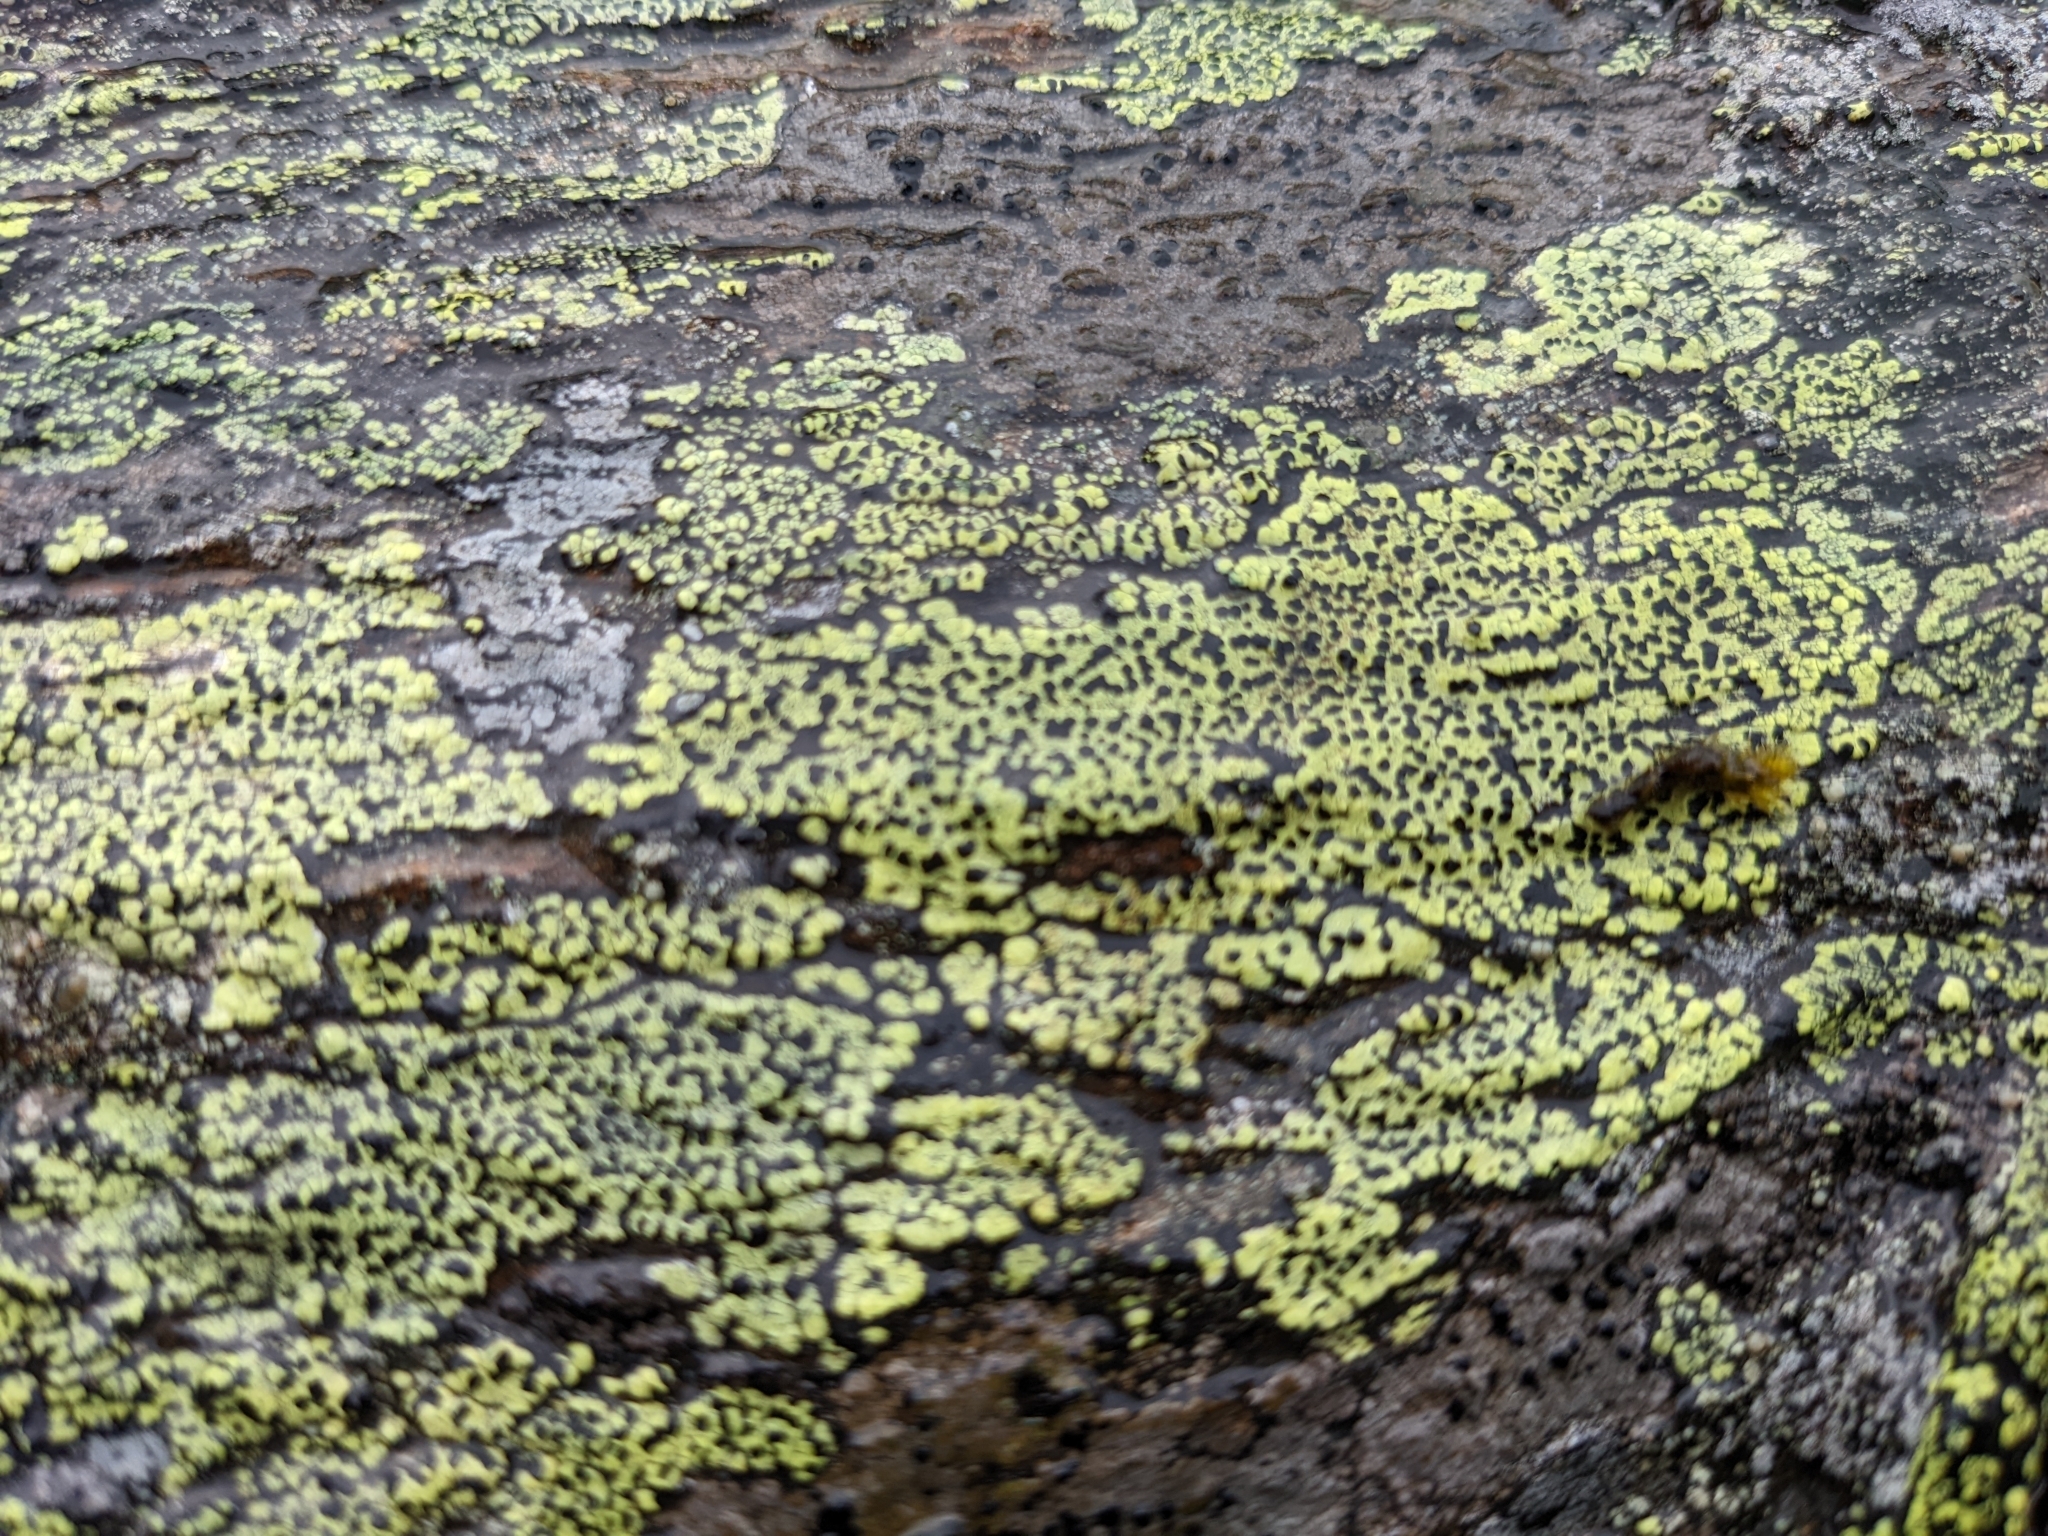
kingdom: Fungi
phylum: Ascomycota
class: Lecanoromycetes
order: Rhizocarpales
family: Rhizocarpaceae
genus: Rhizocarpon
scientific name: Rhizocarpon geographicum
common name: Yellow map lichen
